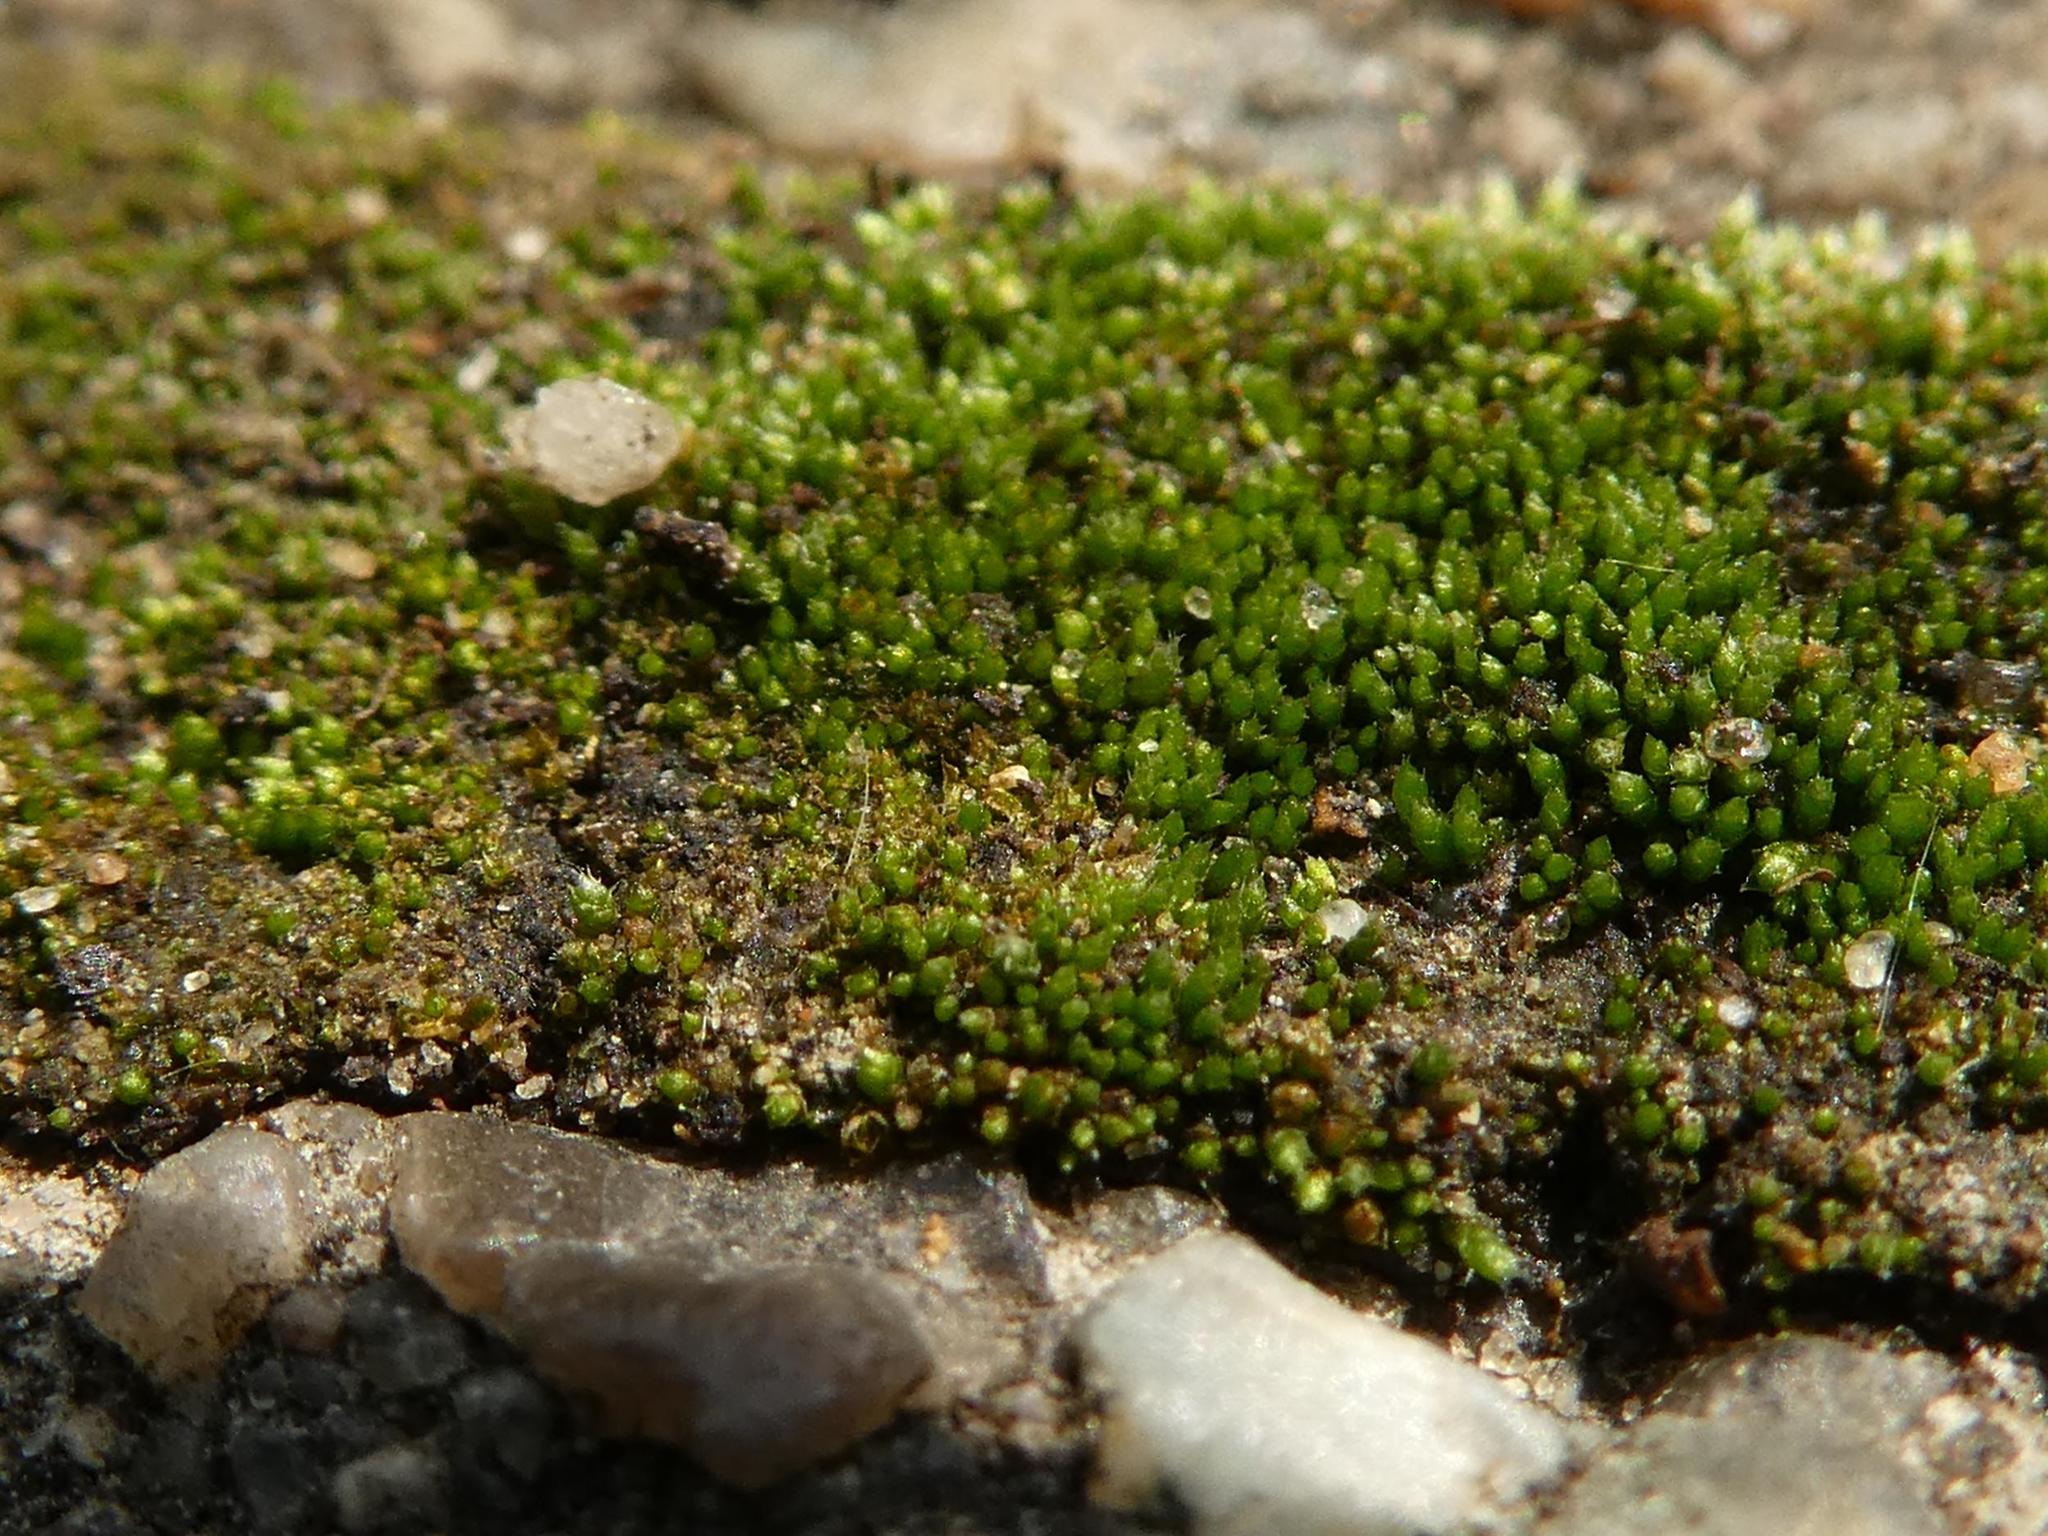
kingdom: Plantae
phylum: Bryophyta
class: Bryopsida
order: Bryales
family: Bryaceae
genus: Bryum
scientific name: Bryum argenteum
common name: Silver-moss
